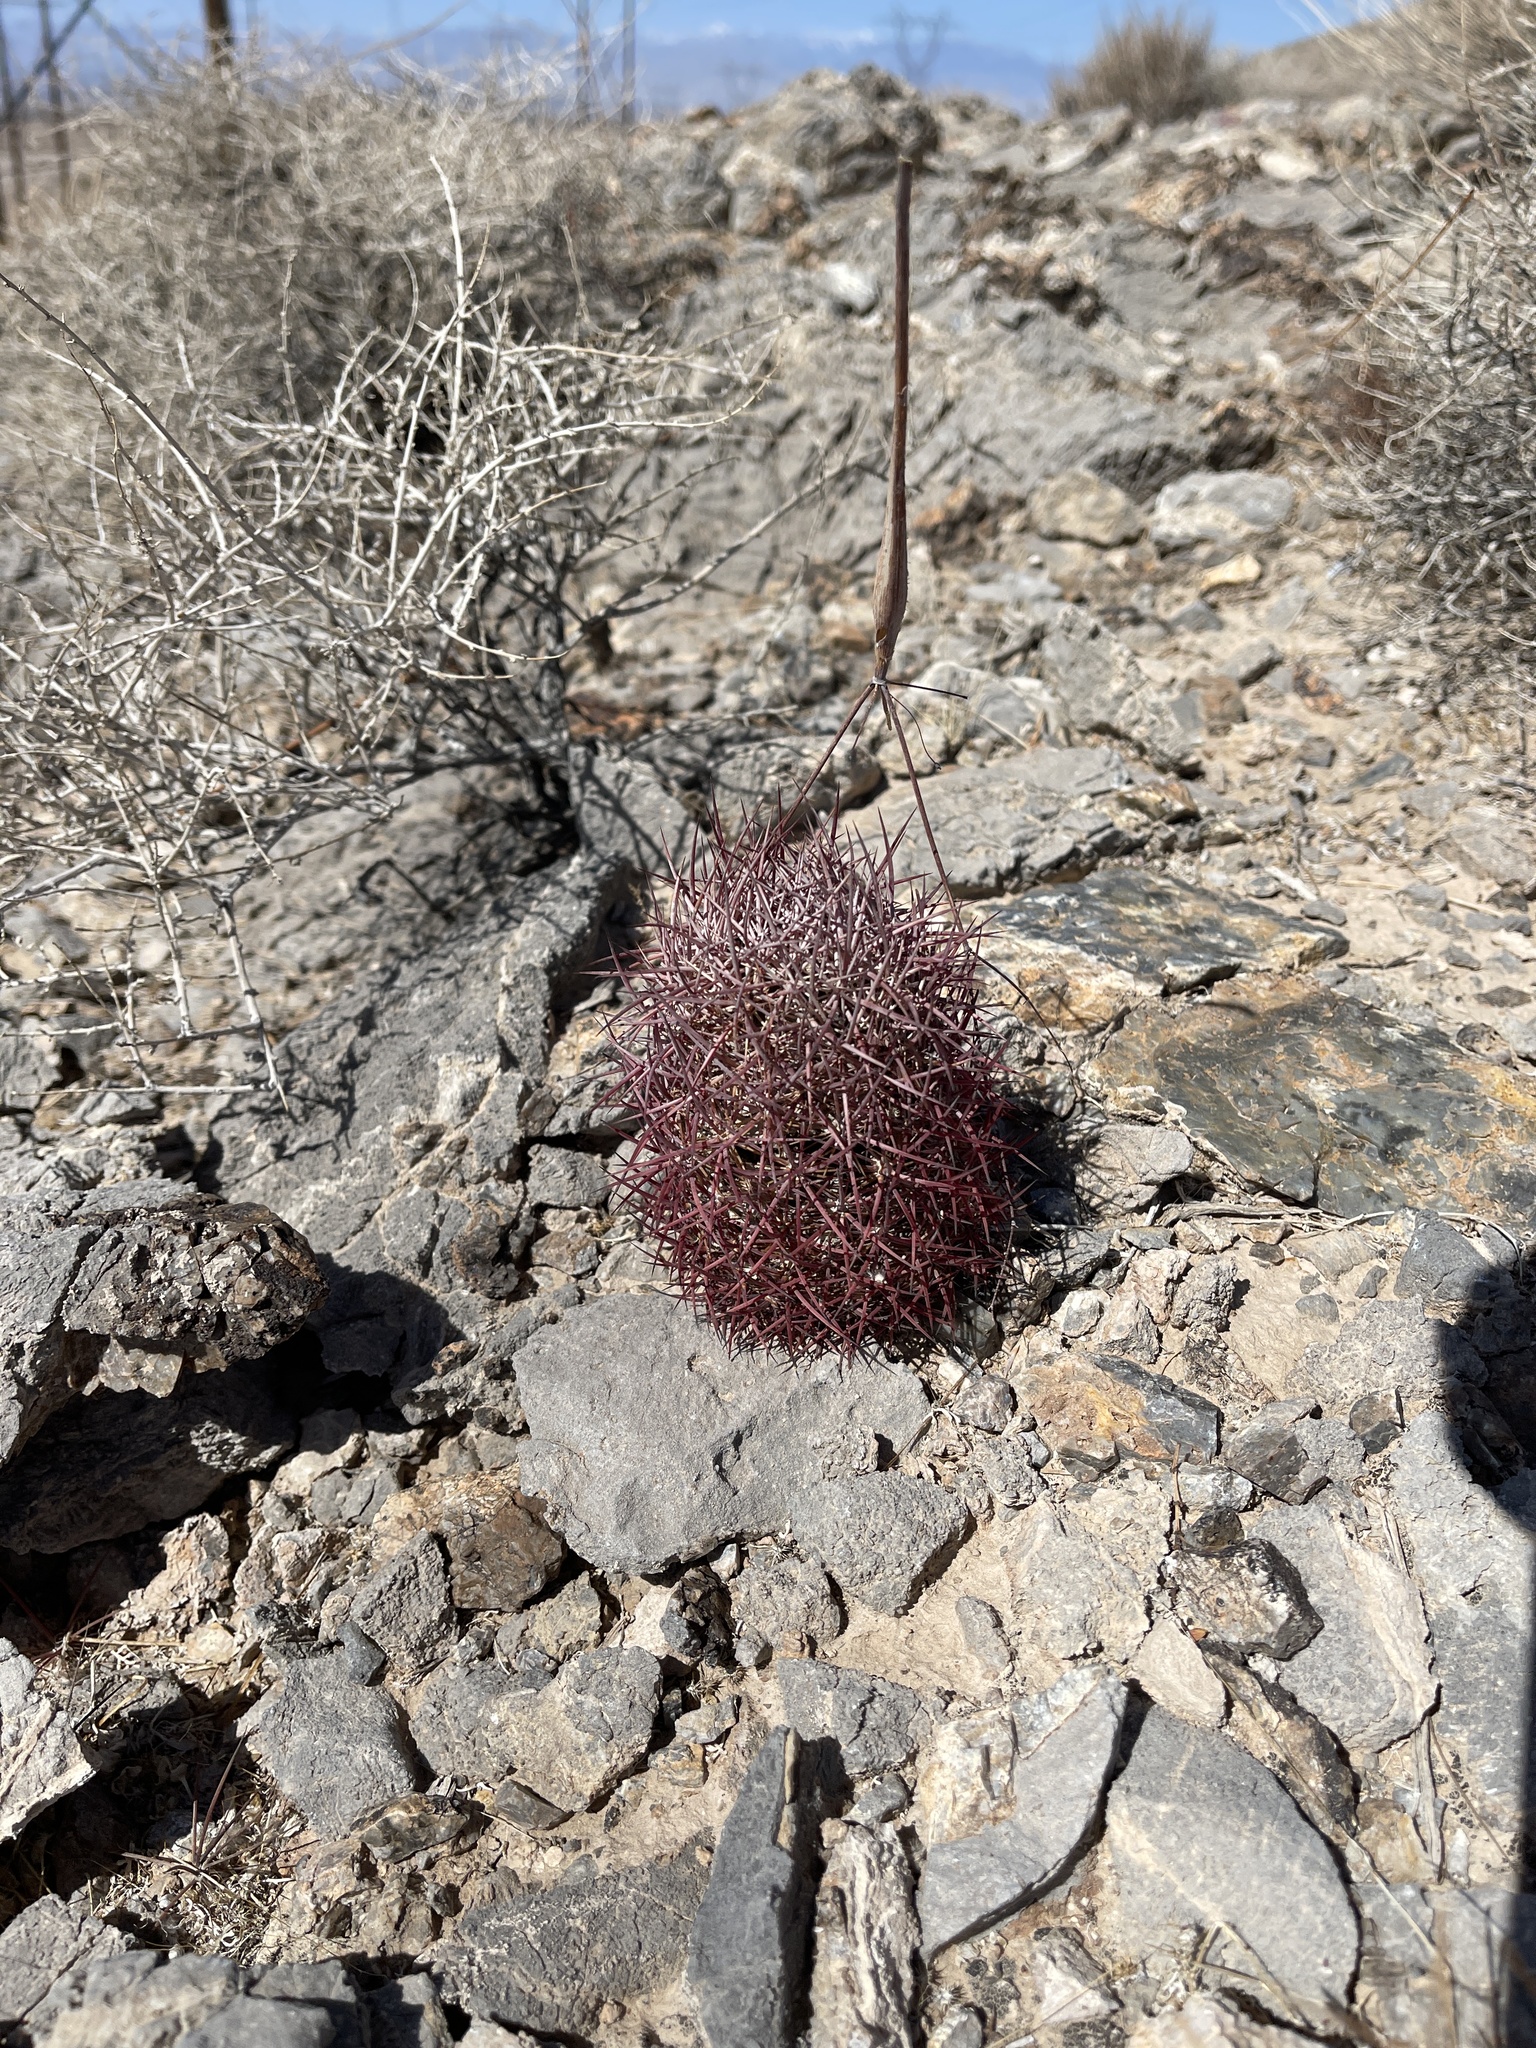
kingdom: Plantae
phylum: Tracheophyta
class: Magnoliopsida
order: Caryophyllales
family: Cactaceae
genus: Sclerocactus
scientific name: Sclerocactus johnsonii
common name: Eight-spine fishhook cactus
